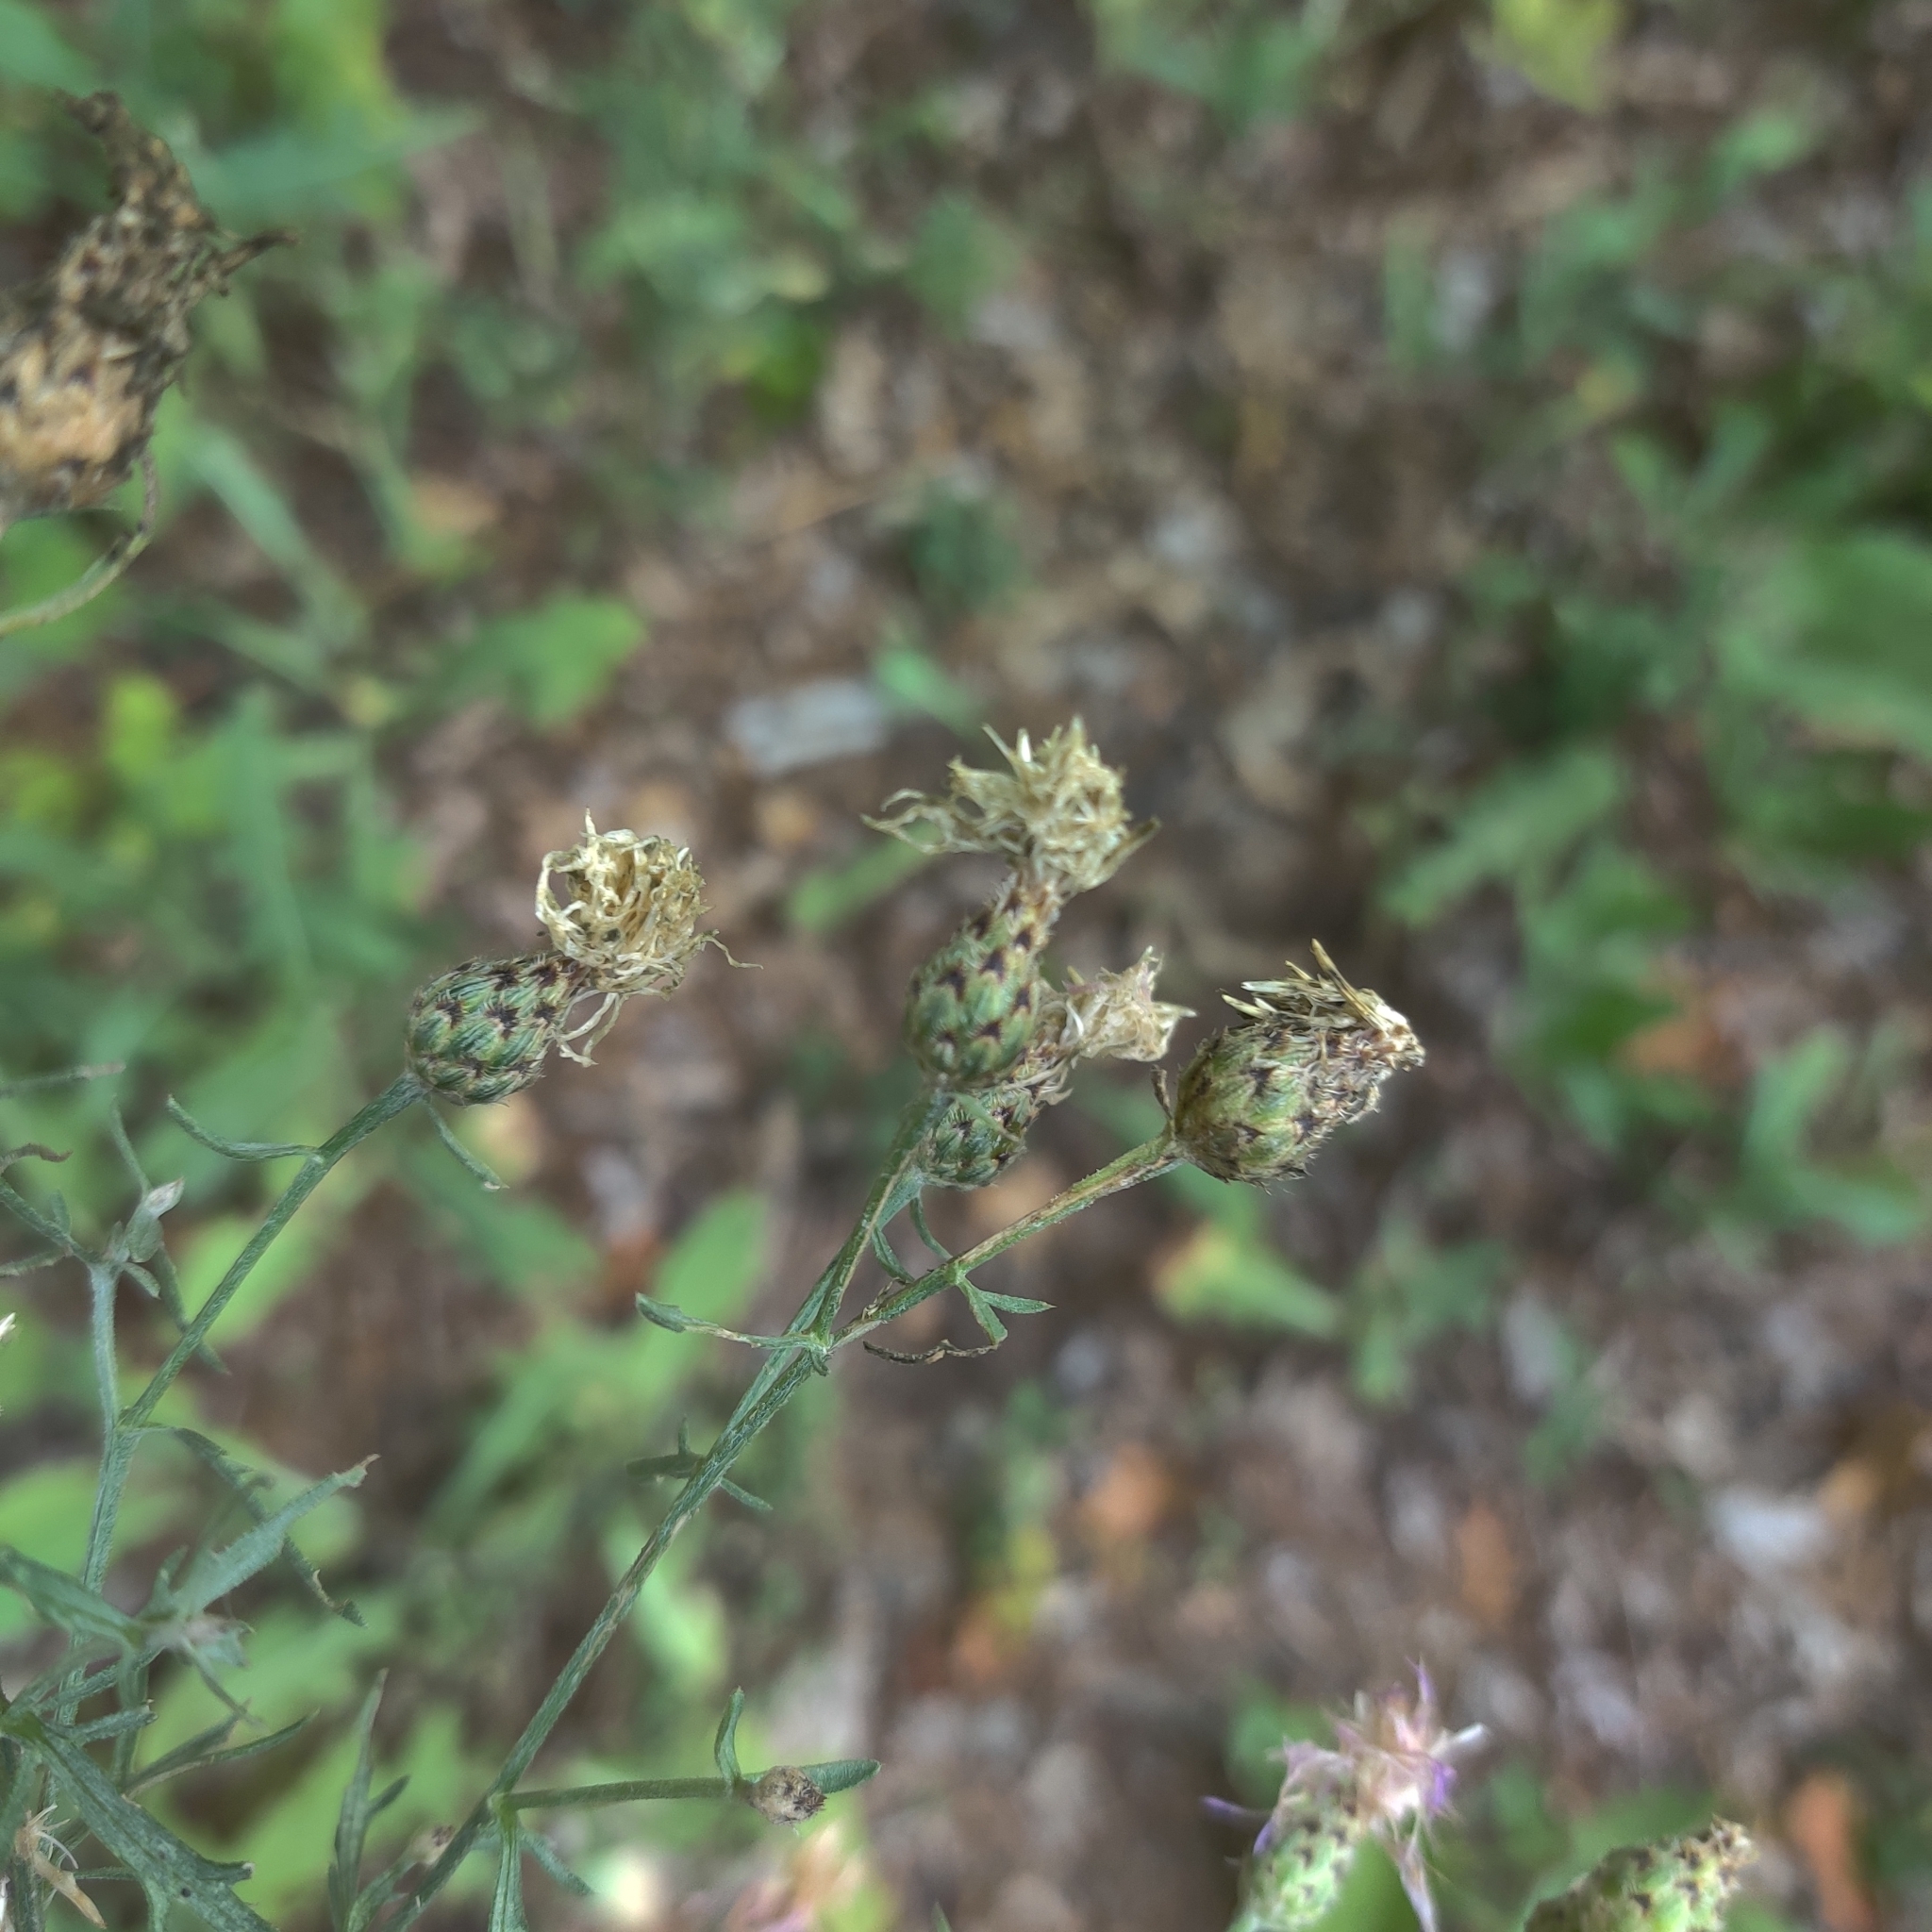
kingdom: Plantae
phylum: Tracheophyta
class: Magnoliopsida
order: Asterales
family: Asteraceae
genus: Centaurea
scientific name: Centaurea stoebe
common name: Spotted knapweed
